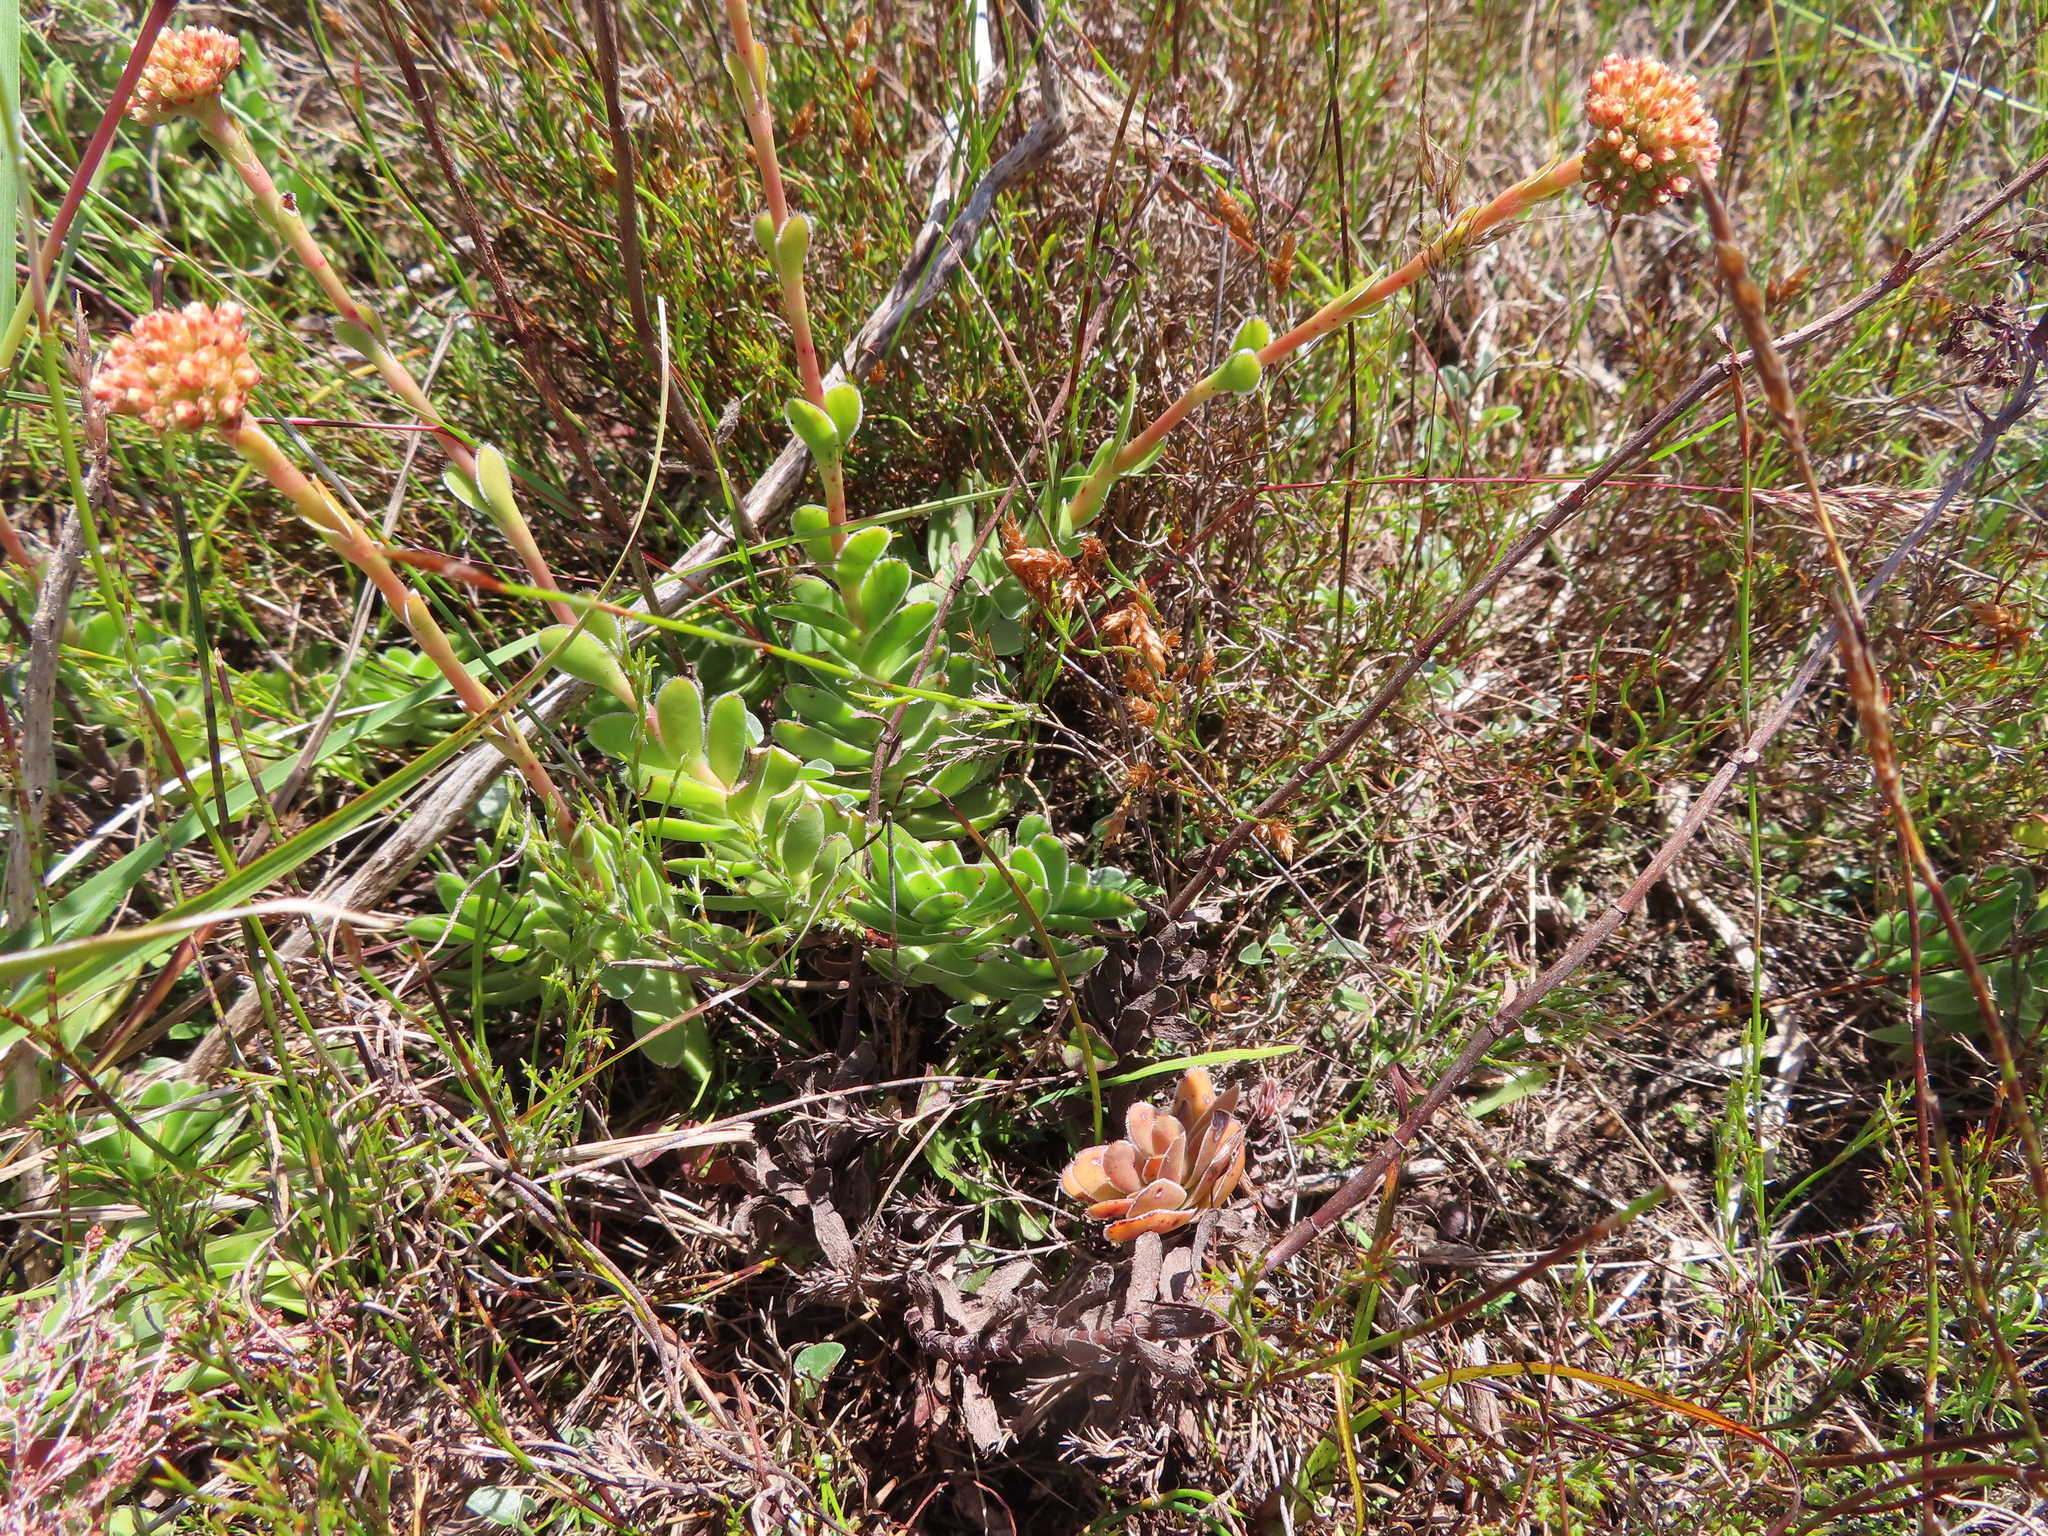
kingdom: Plantae
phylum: Tracheophyta
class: Magnoliopsida
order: Saxifragales
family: Crassulaceae
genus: Crassula
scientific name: Crassula ciliata
